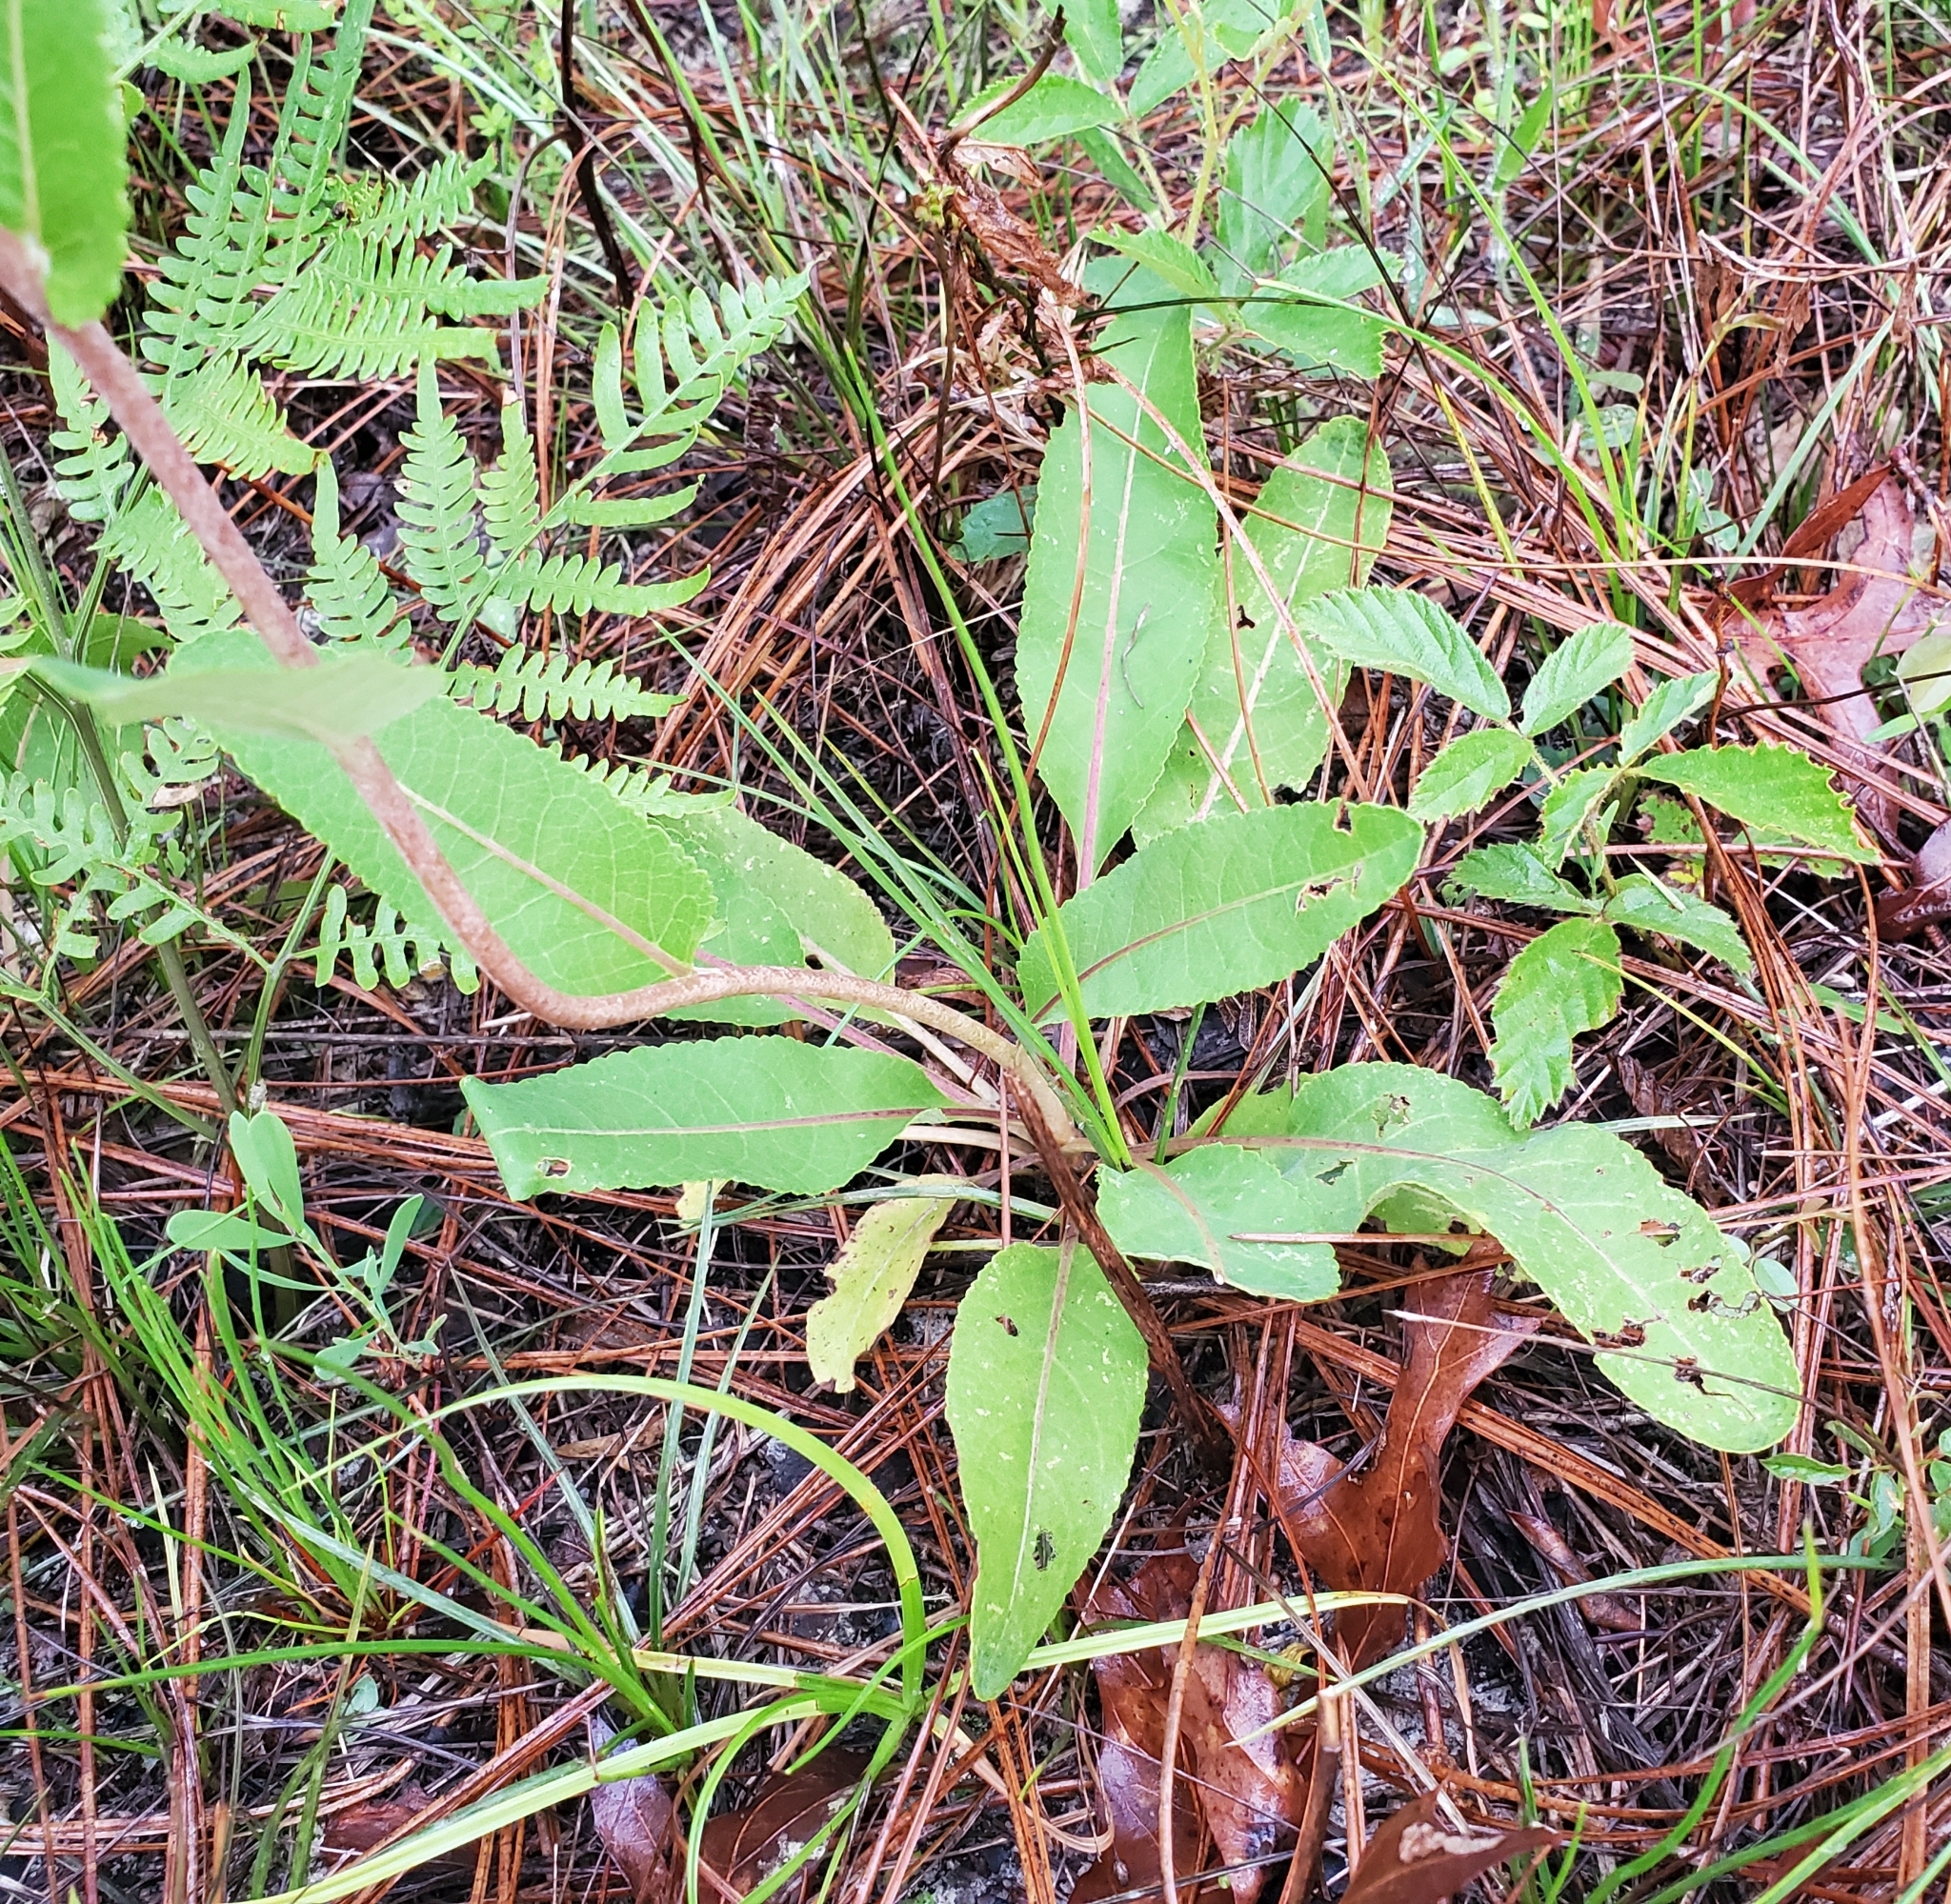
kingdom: Plantae
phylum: Tracheophyta
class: Magnoliopsida
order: Asterales
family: Asteraceae
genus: Berlandiera
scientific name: Berlandiera pumila
